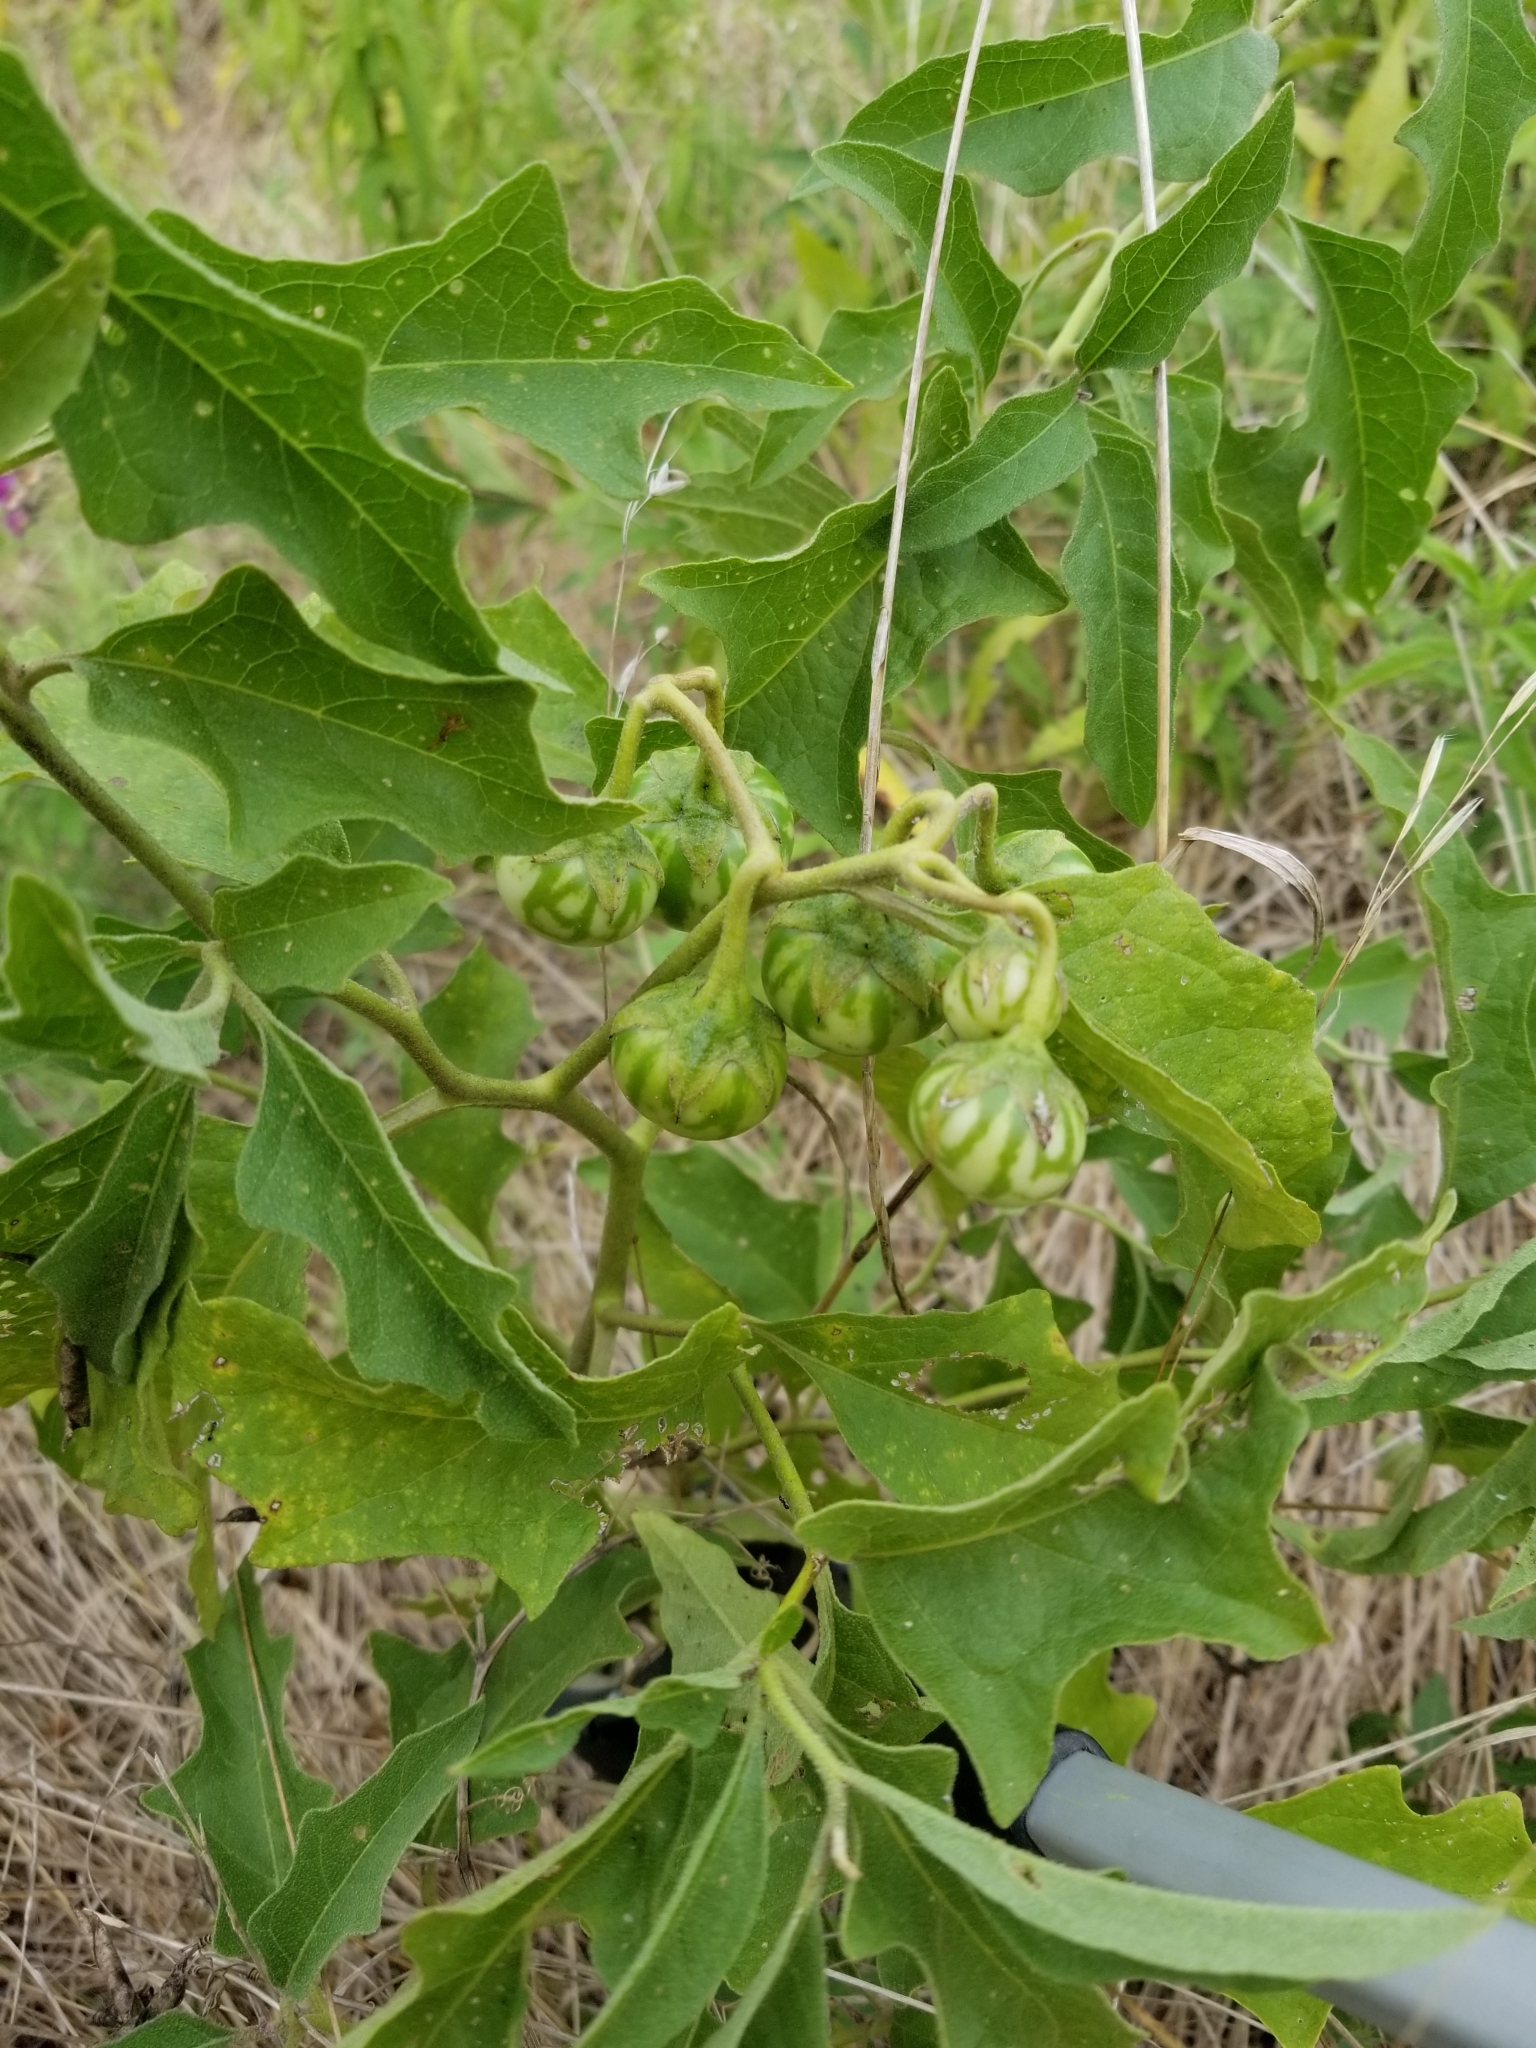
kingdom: Plantae
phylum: Tracheophyta
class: Magnoliopsida
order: Solanales
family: Solanaceae
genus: Solanum
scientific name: Solanum dimidiatum
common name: Carolina horse-nettle
